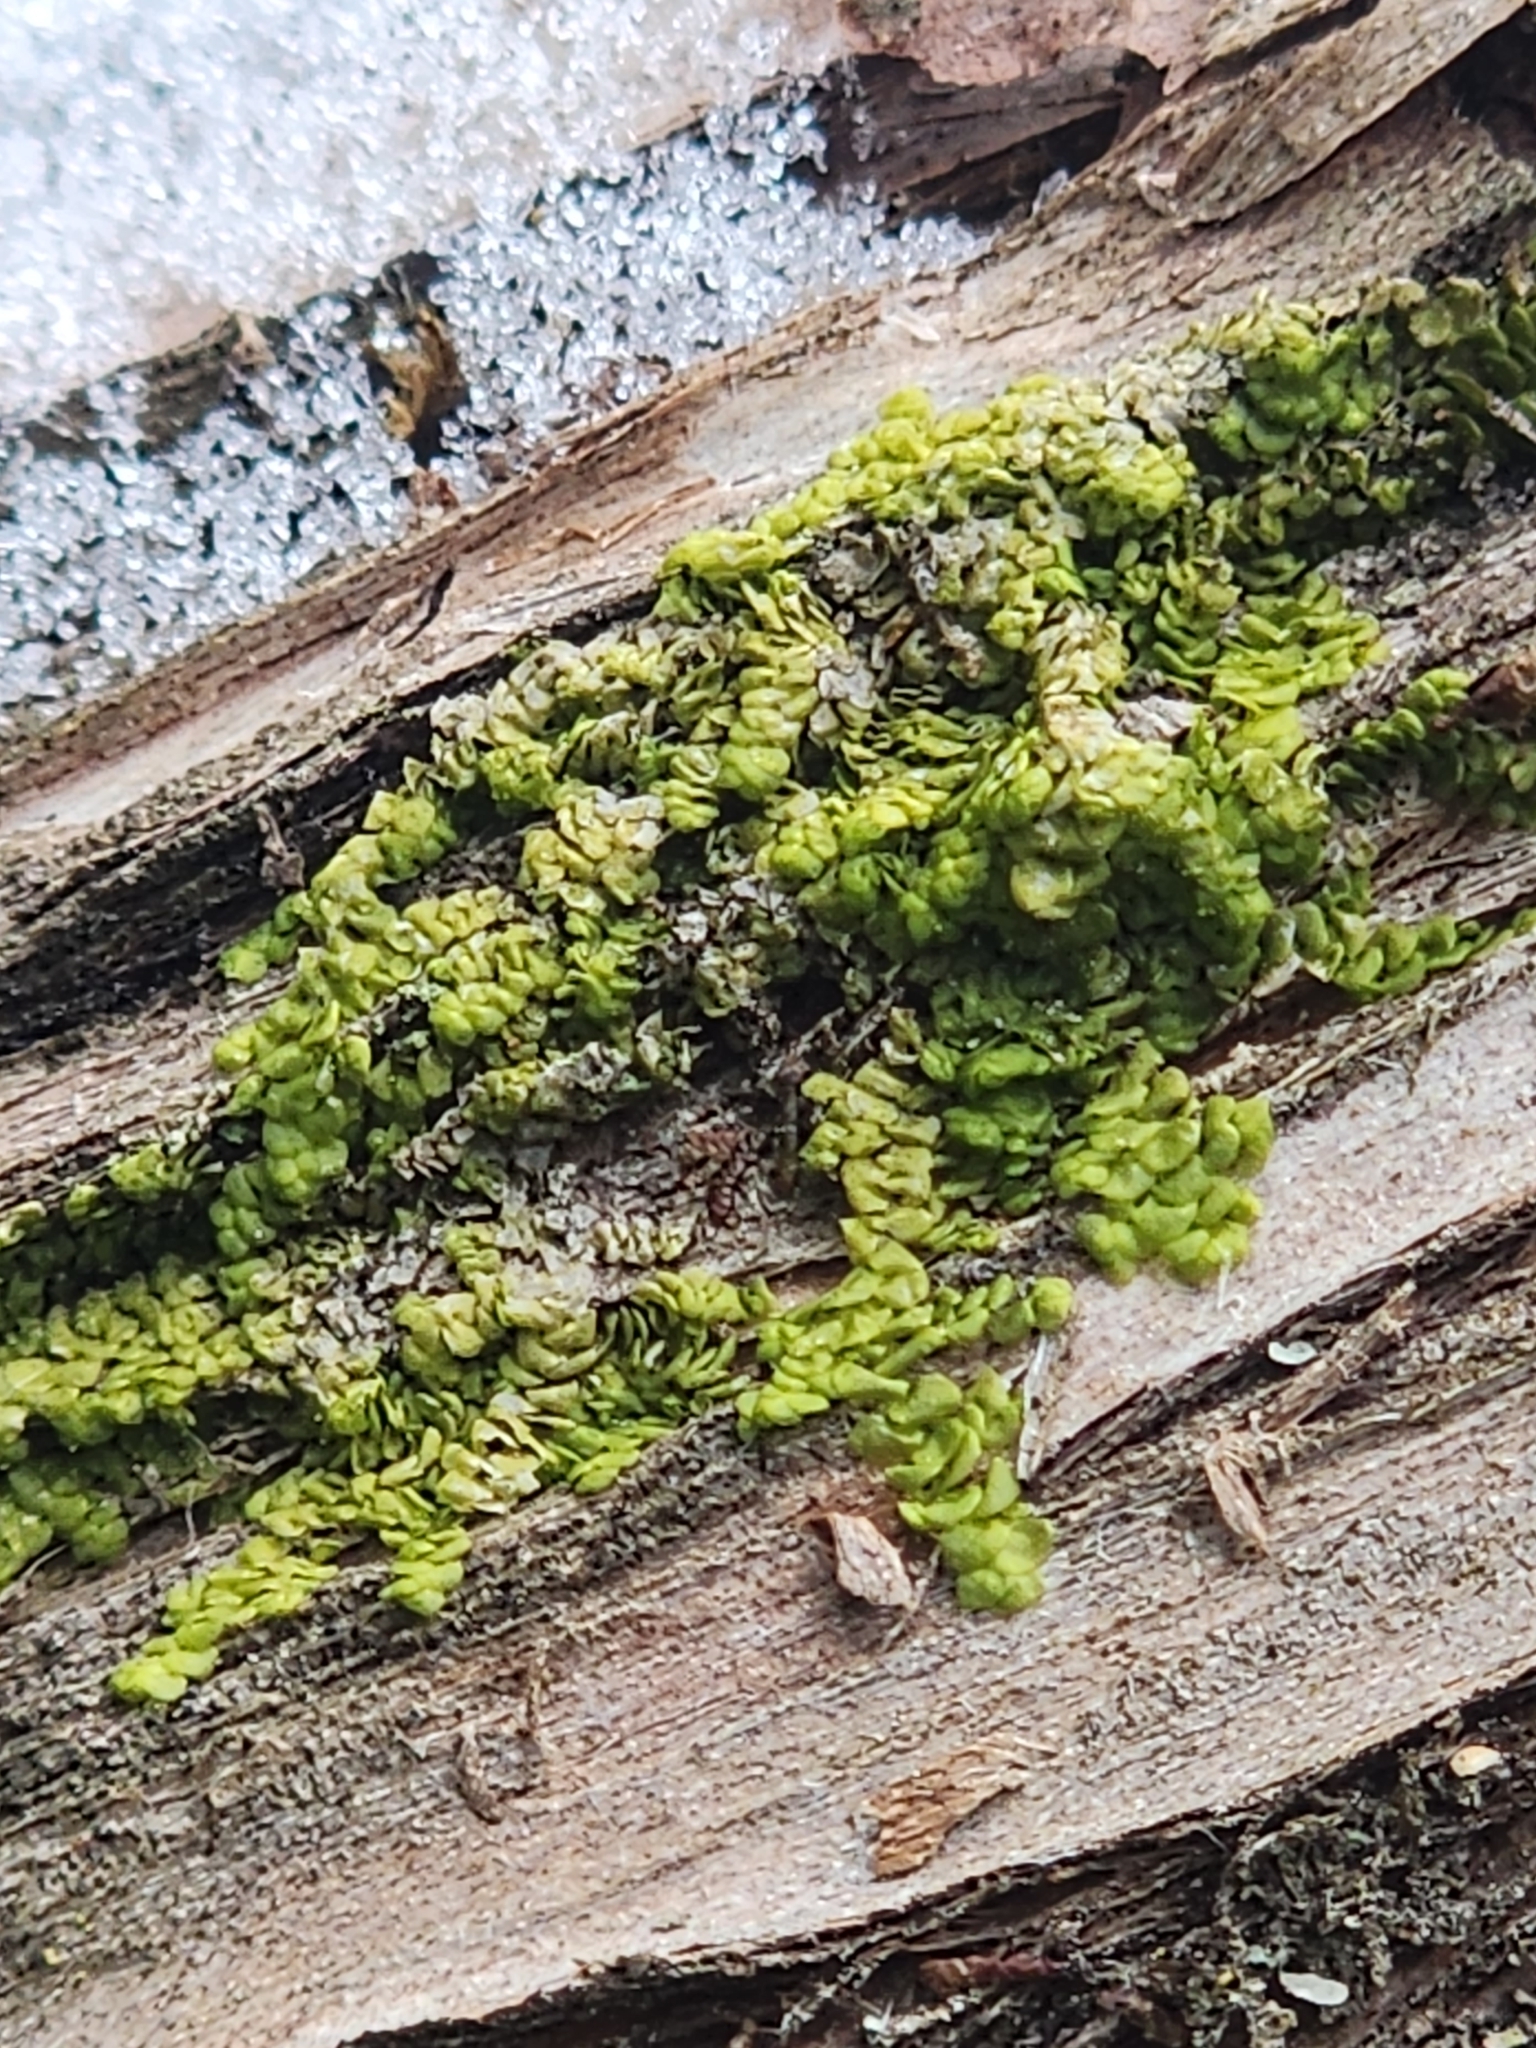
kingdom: Plantae
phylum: Marchantiophyta
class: Jungermanniopsida
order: Porellales
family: Radulaceae
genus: Radula
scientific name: Radula complanata
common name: Flat-leaved scalewort
